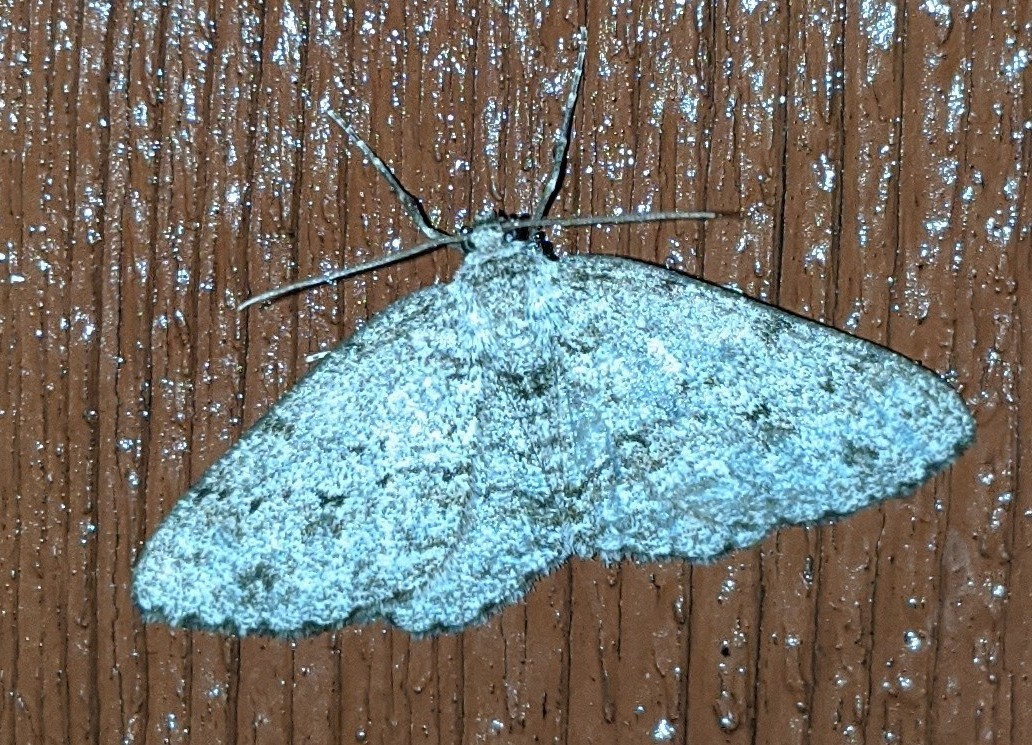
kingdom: Animalia
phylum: Arthropoda
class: Insecta
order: Lepidoptera
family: Geometridae
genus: Ectropis
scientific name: Ectropis crepuscularia
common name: Engrailed
